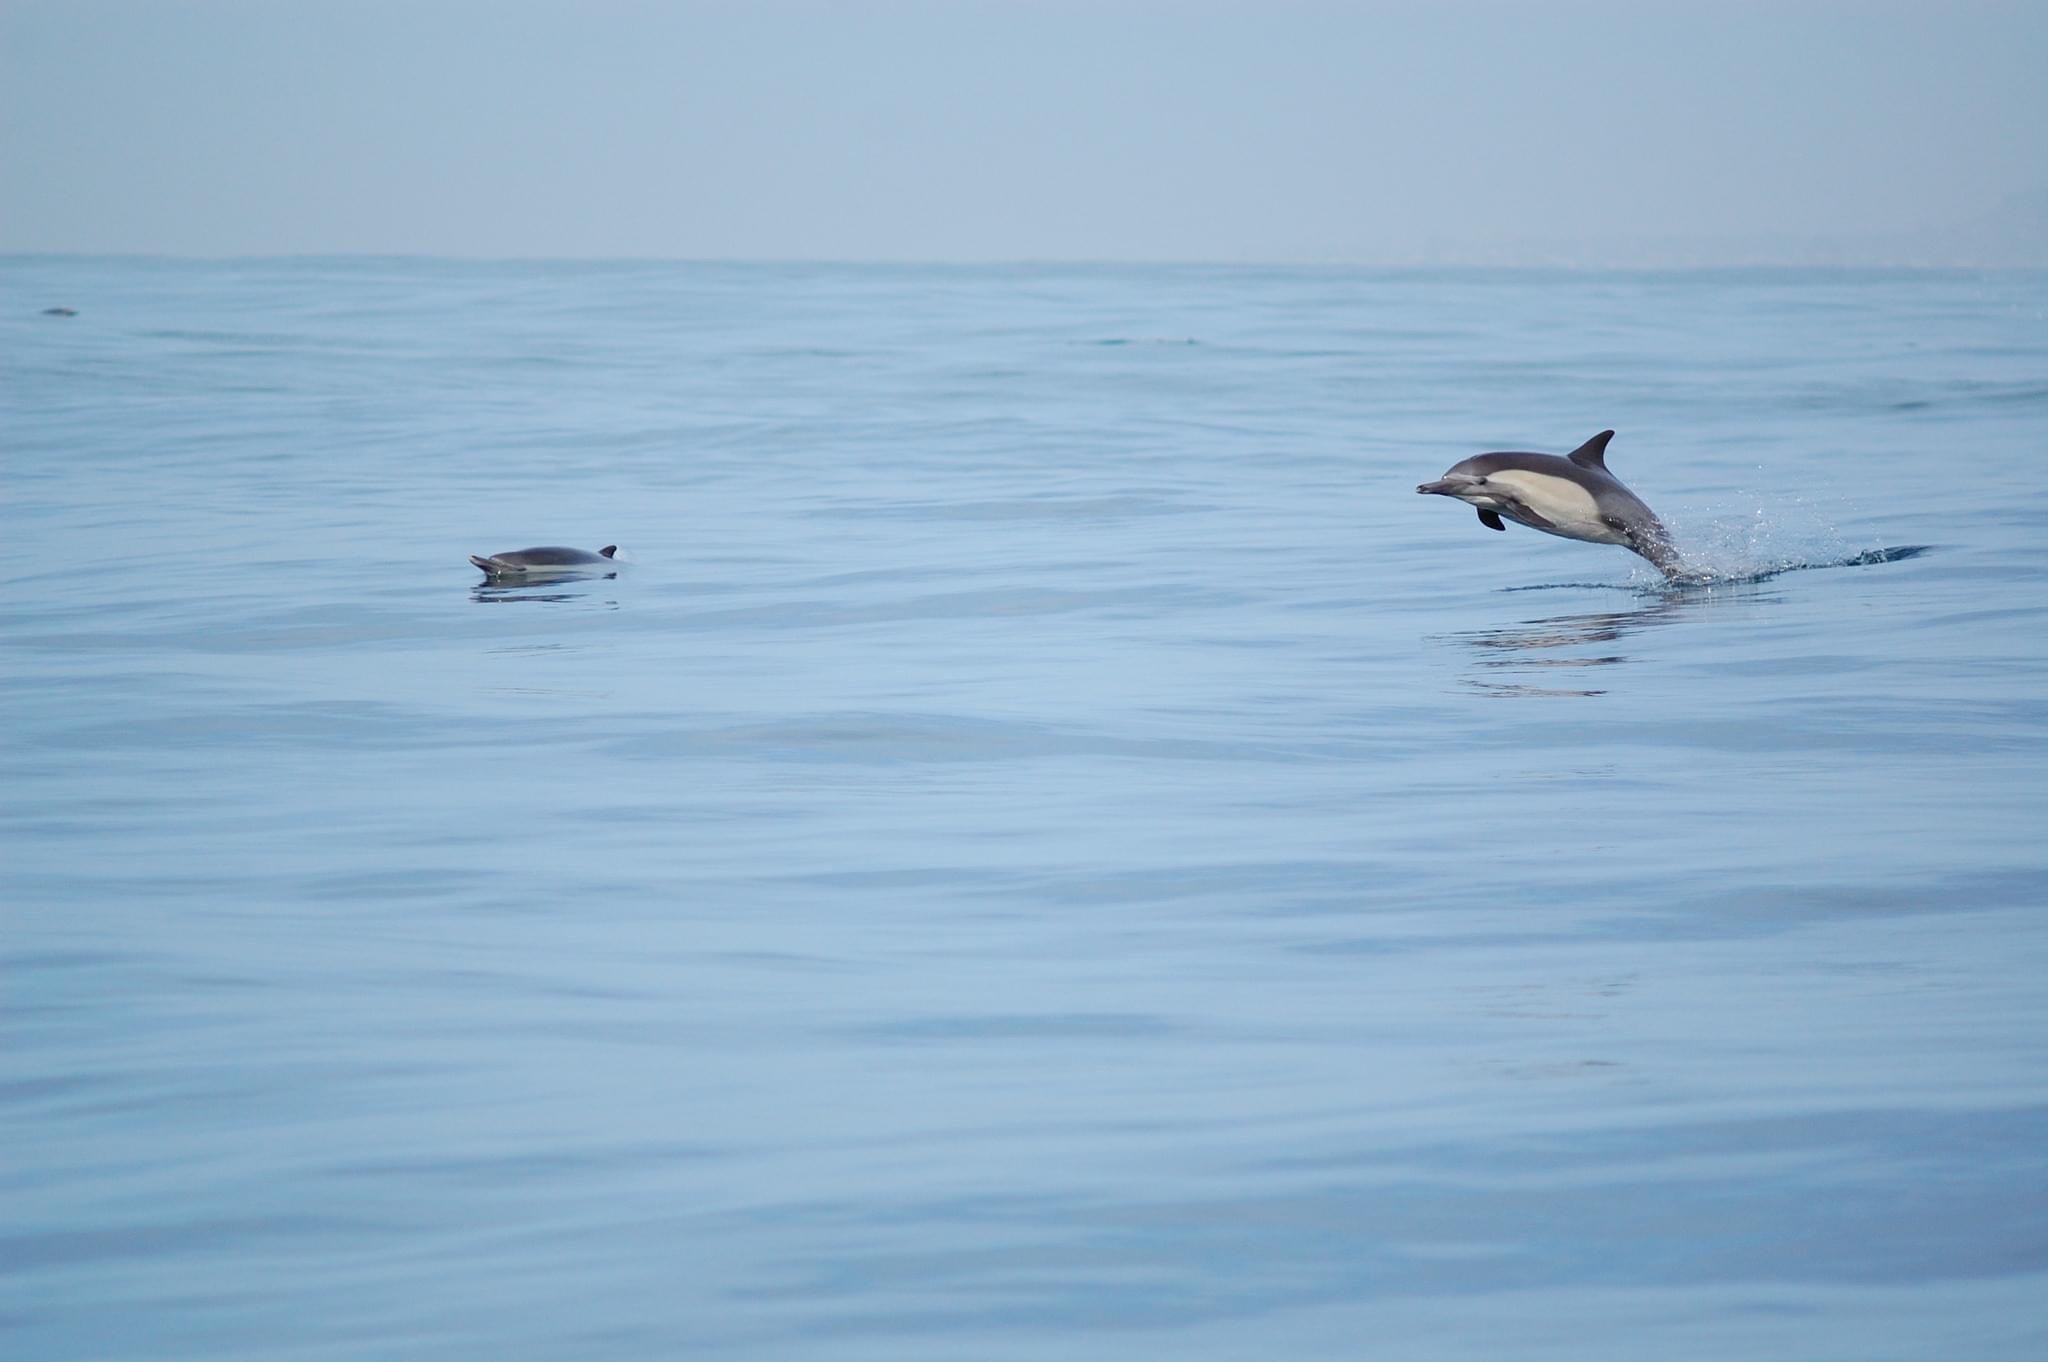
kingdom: Animalia
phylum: Chordata
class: Mammalia
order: Cetacea
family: Delphinidae
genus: Delphinus
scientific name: Delphinus delphis
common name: Common dolphin
